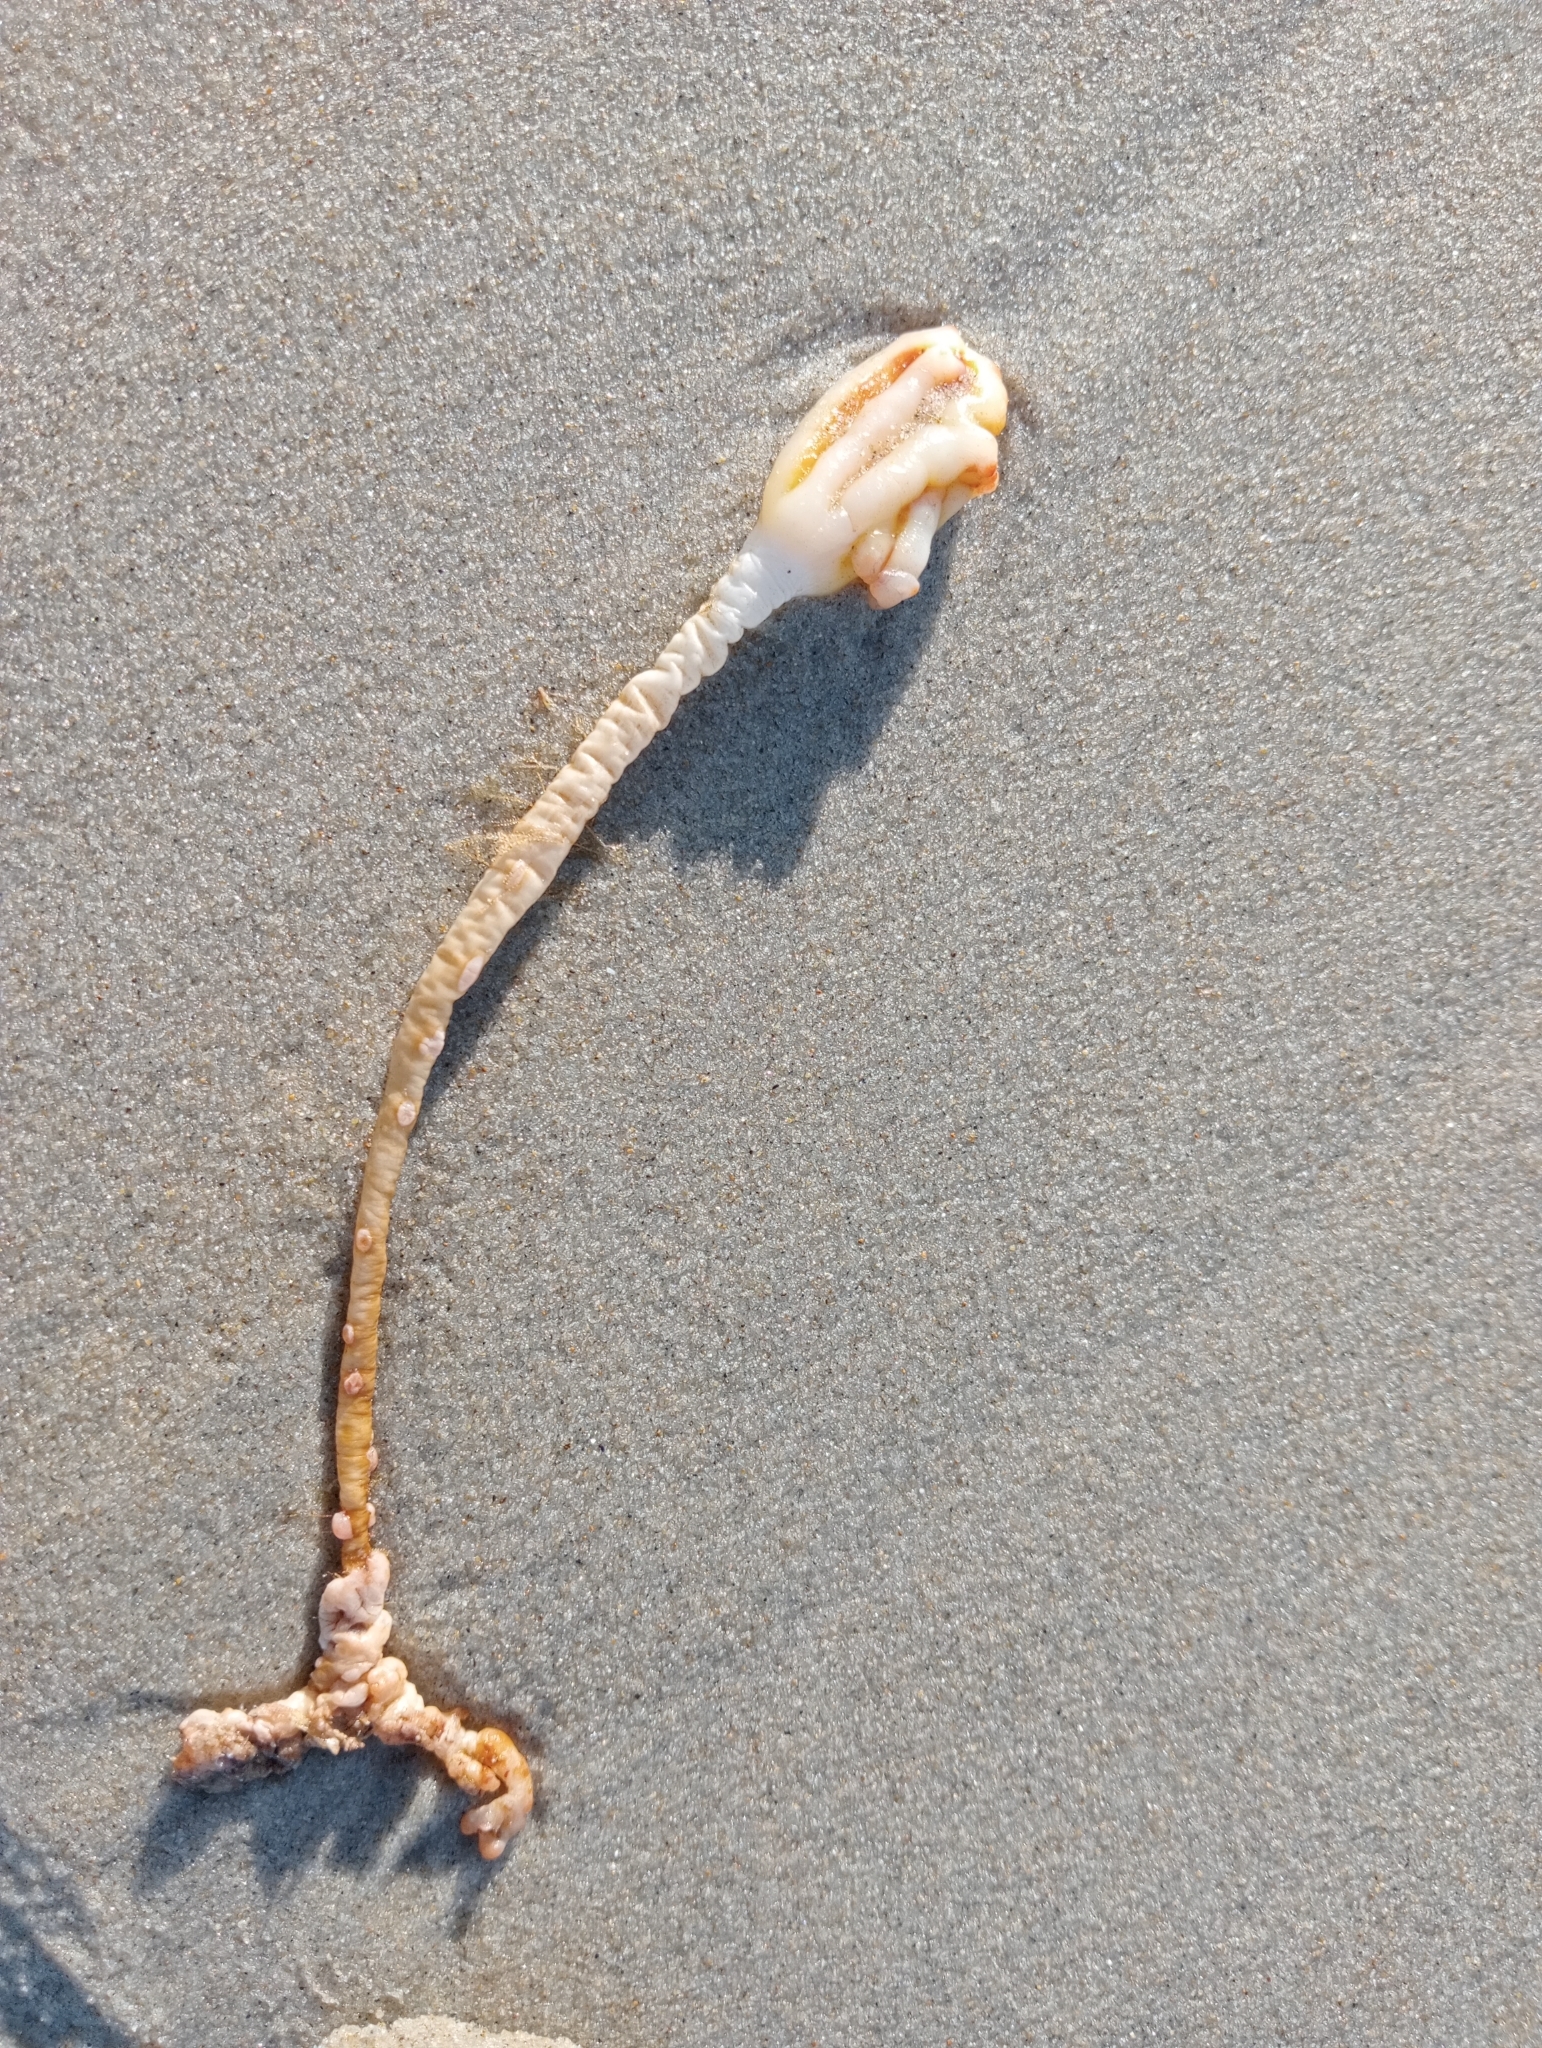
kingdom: Animalia
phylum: Chordata
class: Ascidiacea
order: Stolidobranchia
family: Pyuridae
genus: Pyura
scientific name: Pyura pachydermatina
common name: Sea tulip
